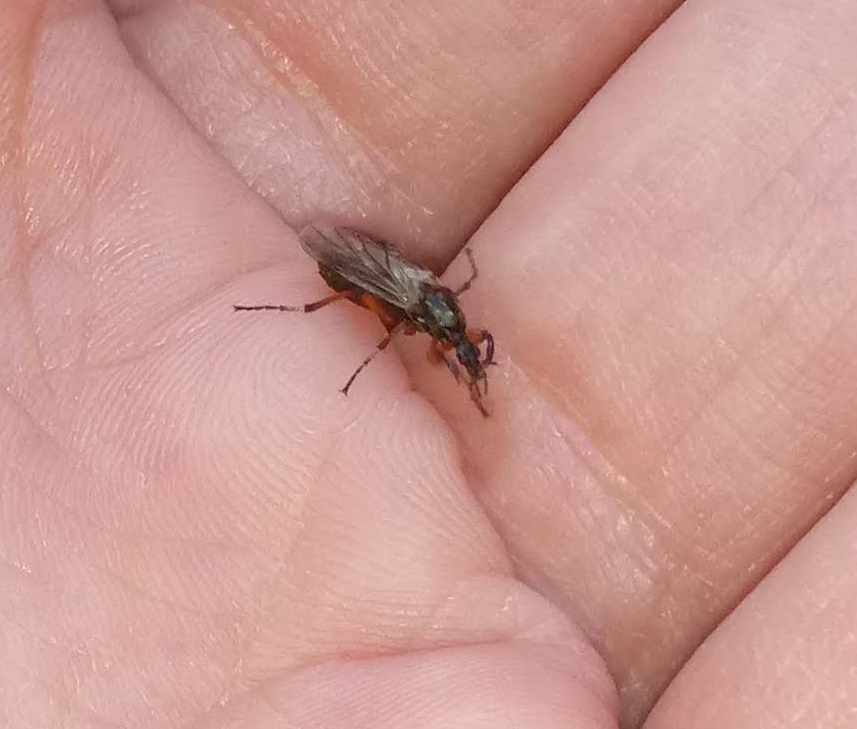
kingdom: Animalia
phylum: Arthropoda
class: Insecta
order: Diptera
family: Bibionidae
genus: Bibio
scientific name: Bibio articulatus
